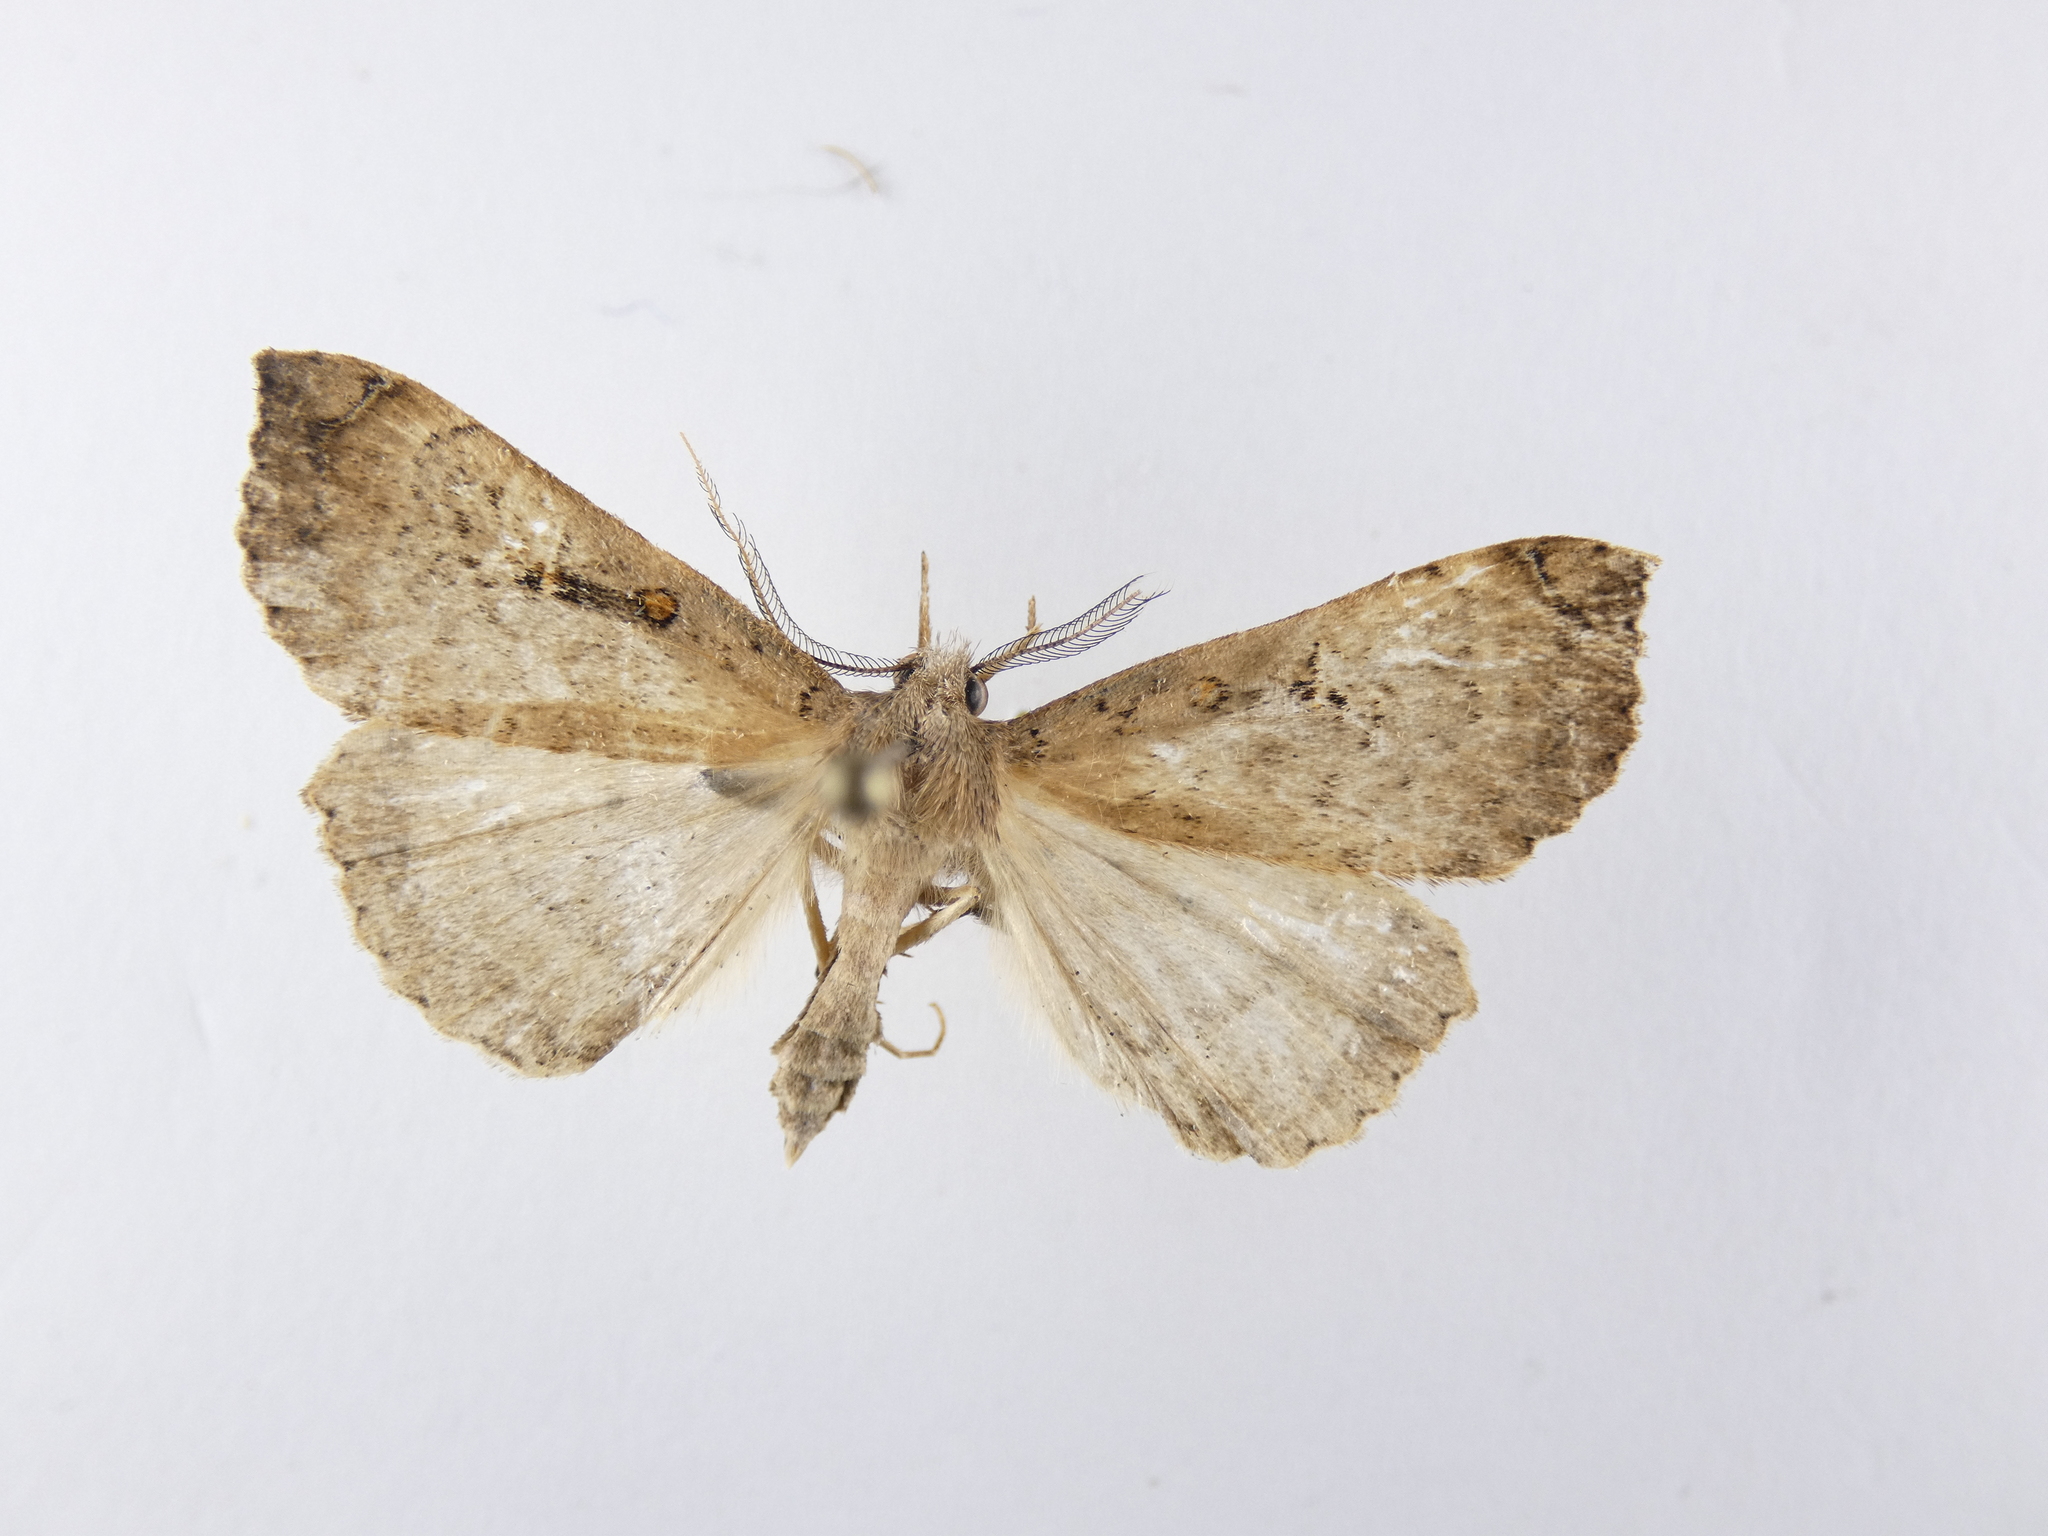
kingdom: Animalia
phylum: Arthropoda
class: Insecta
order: Lepidoptera
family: Erebidae
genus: Rhapsa
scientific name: Rhapsa scotosialis
